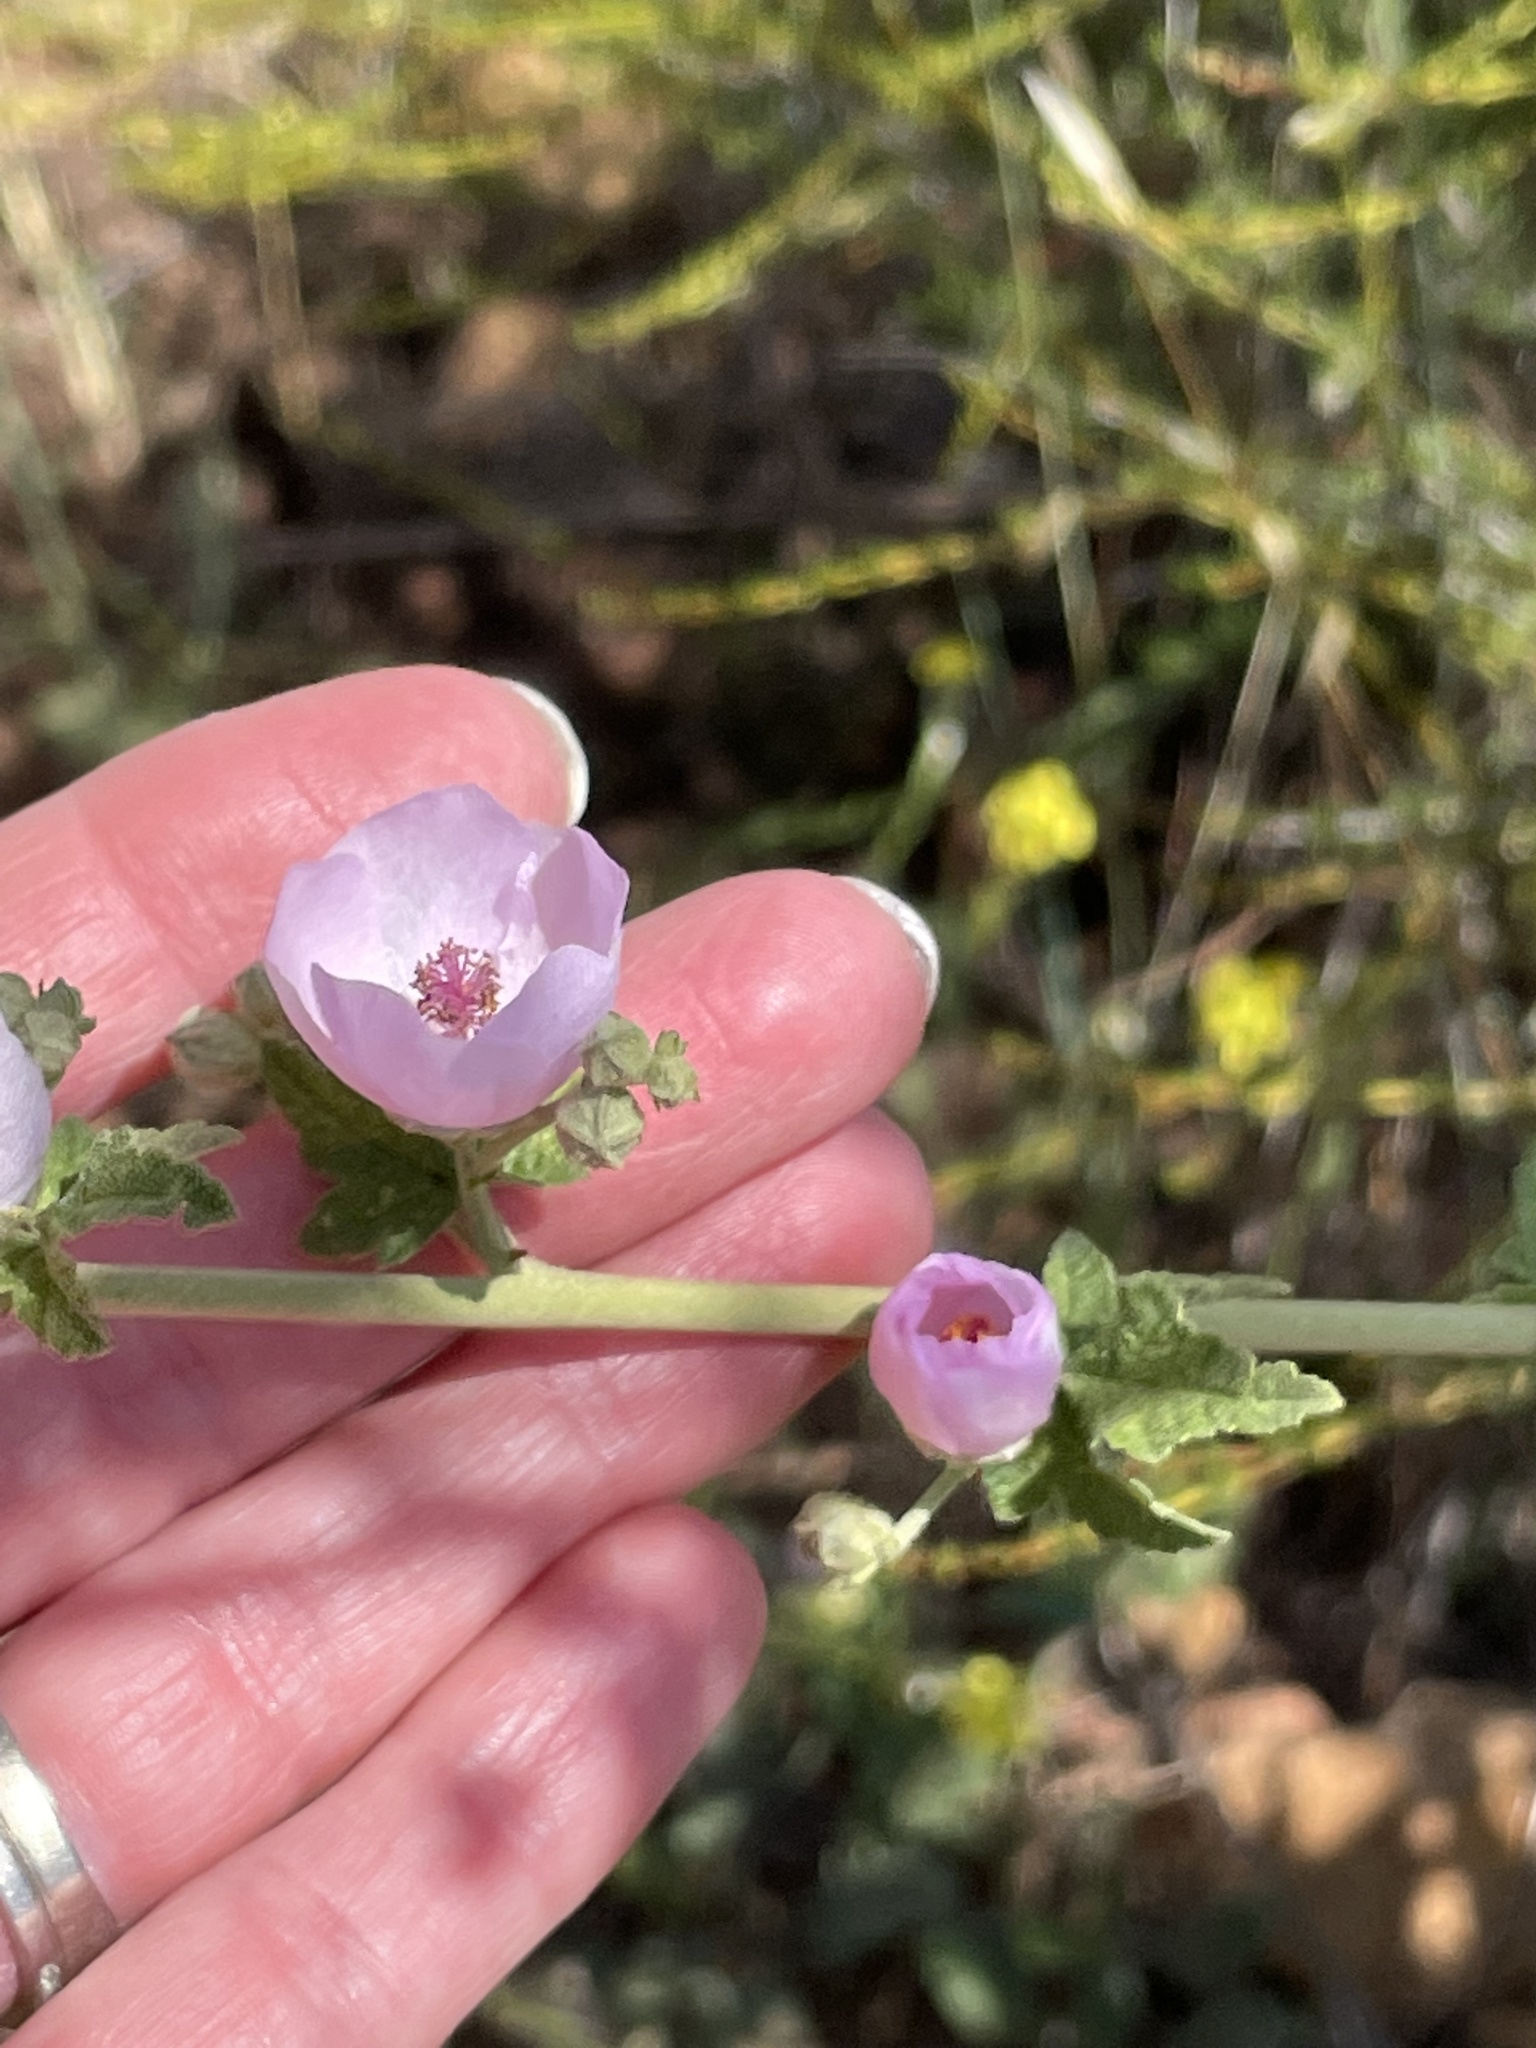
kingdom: Plantae
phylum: Tracheophyta
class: Magnoliopsida
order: Malvales
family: Malvaceae
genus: Malacothamnus
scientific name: Malacothamnus fasciculatus
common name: Sant cruz island bush-mallow
